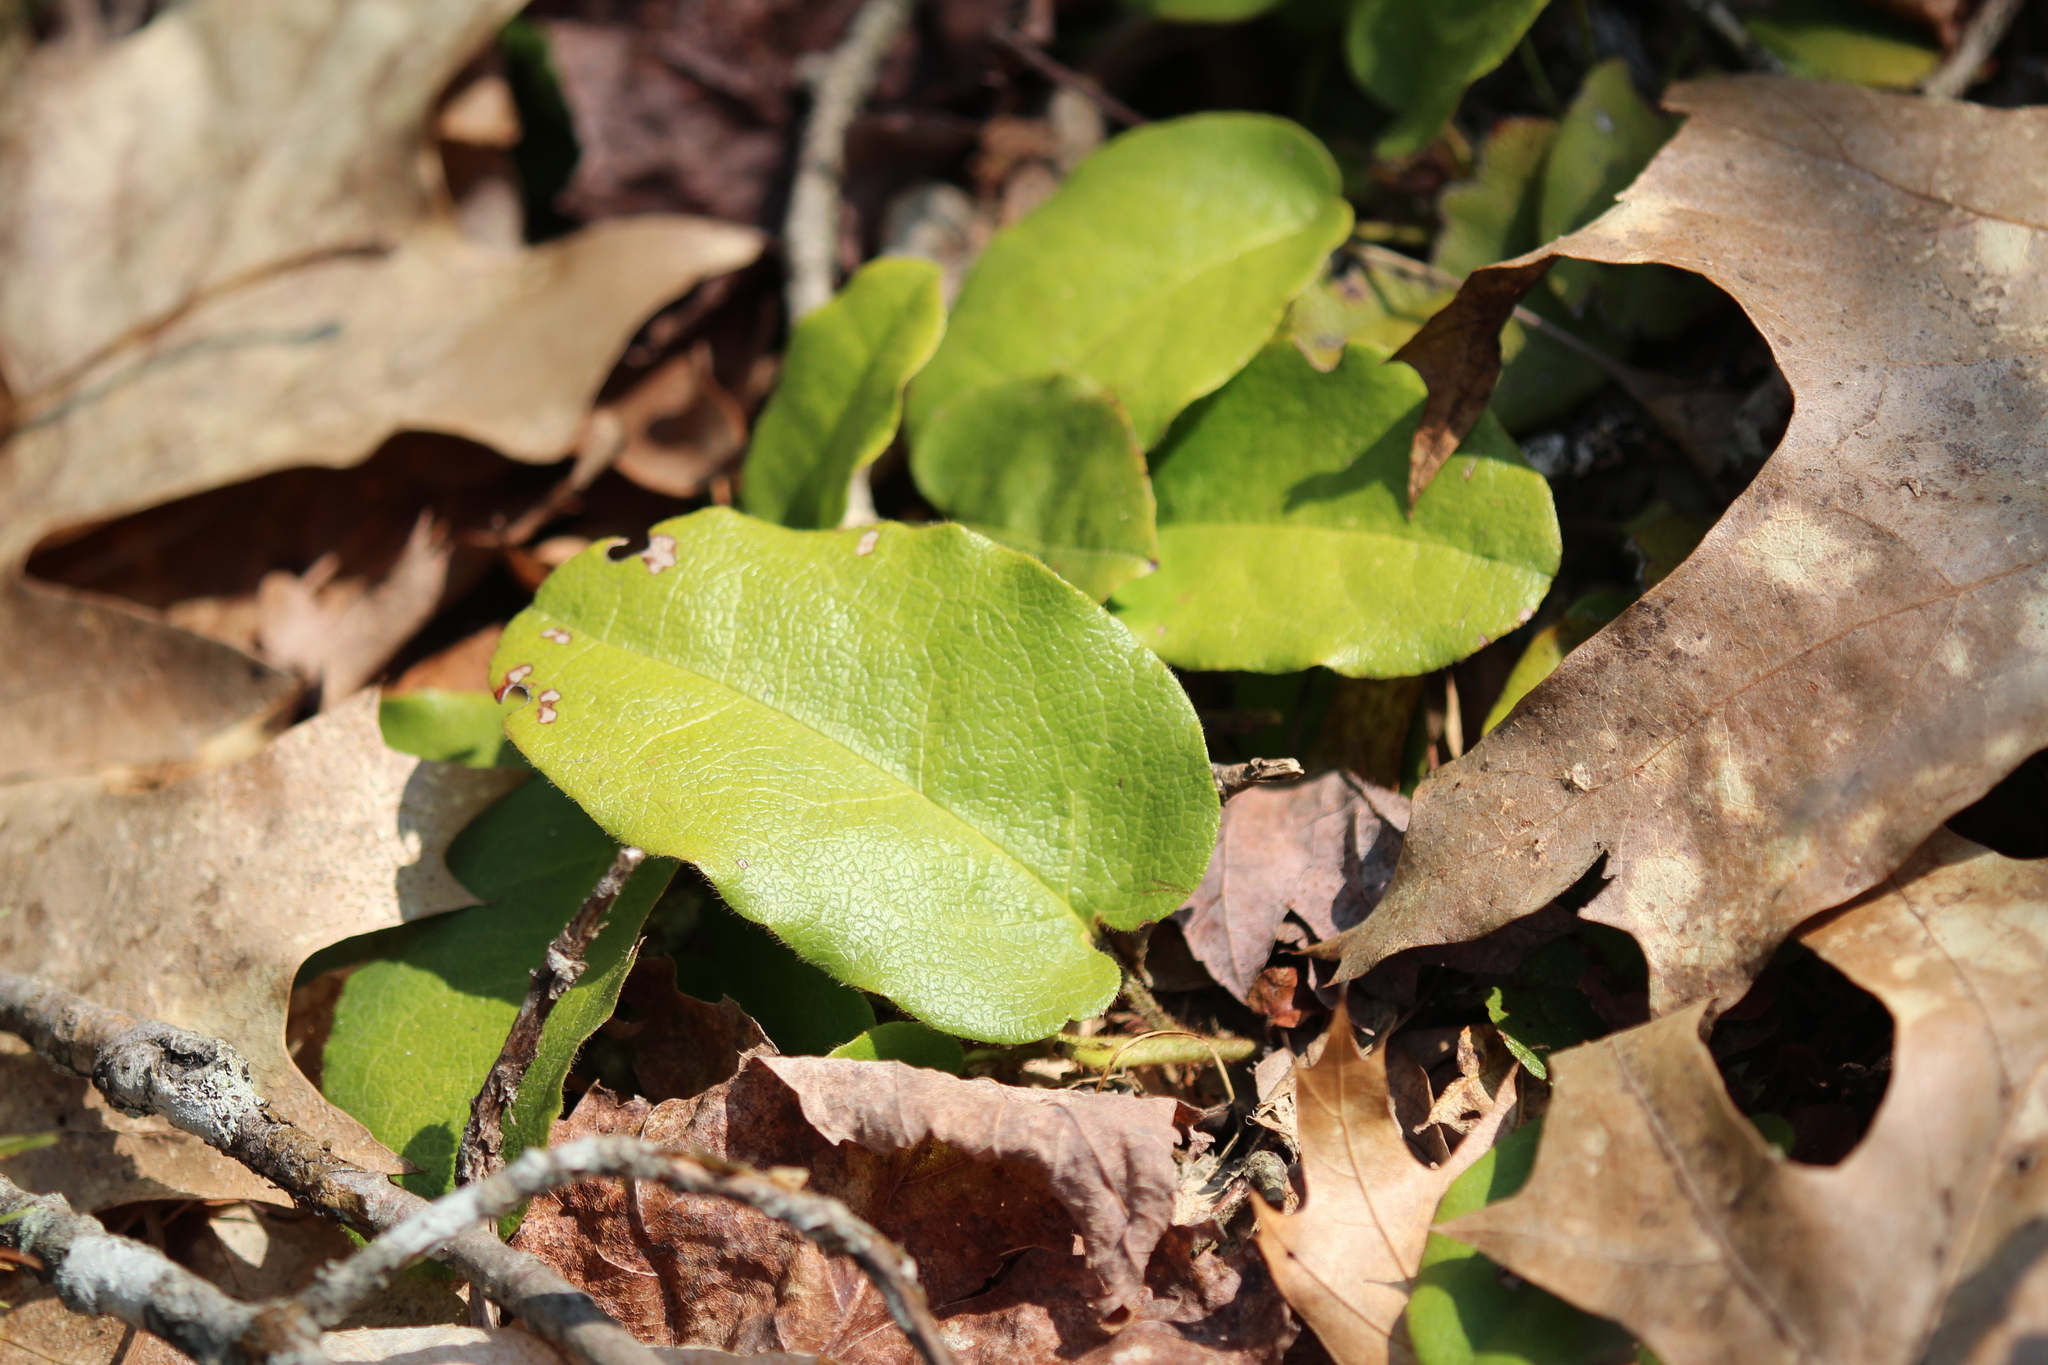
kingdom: Plantae
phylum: Tracheophyta
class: Magnoliopsida
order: Ericales
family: Ericaceae
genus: Epigaea
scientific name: Epigaea repens
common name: Gravelroot
